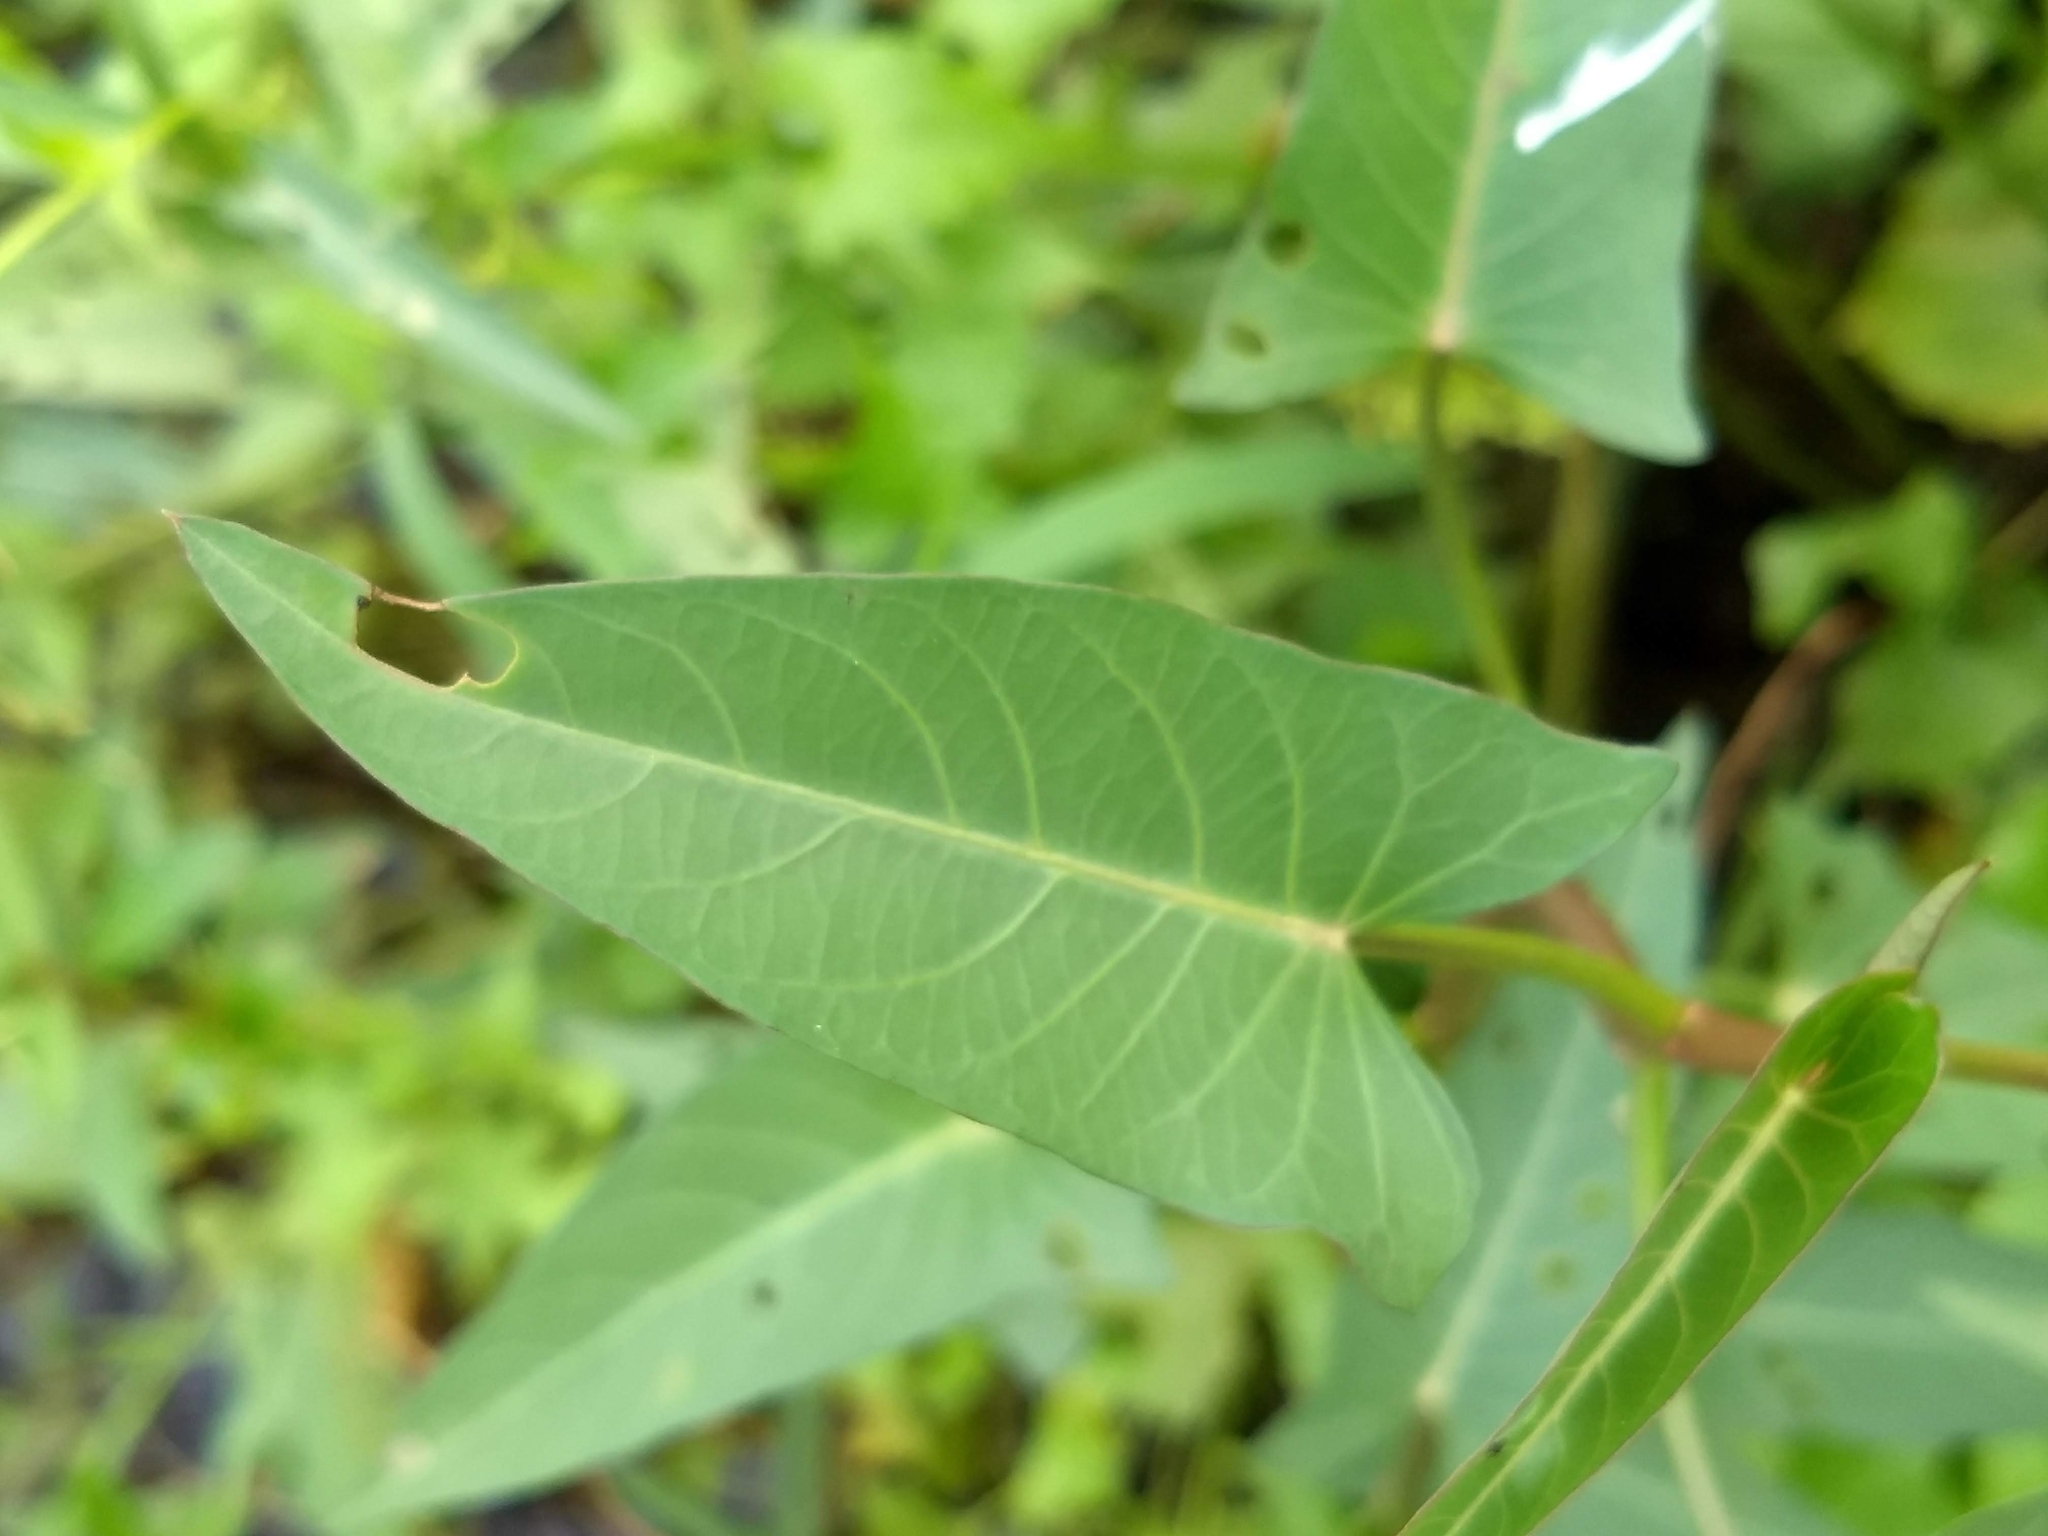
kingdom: Plantae
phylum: Tracheophyta
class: Magnoliopsida
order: Solanales
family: Convolvulaceae
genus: Ipomoea
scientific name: Ipomoea aquatica
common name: Swamp morning-glory
